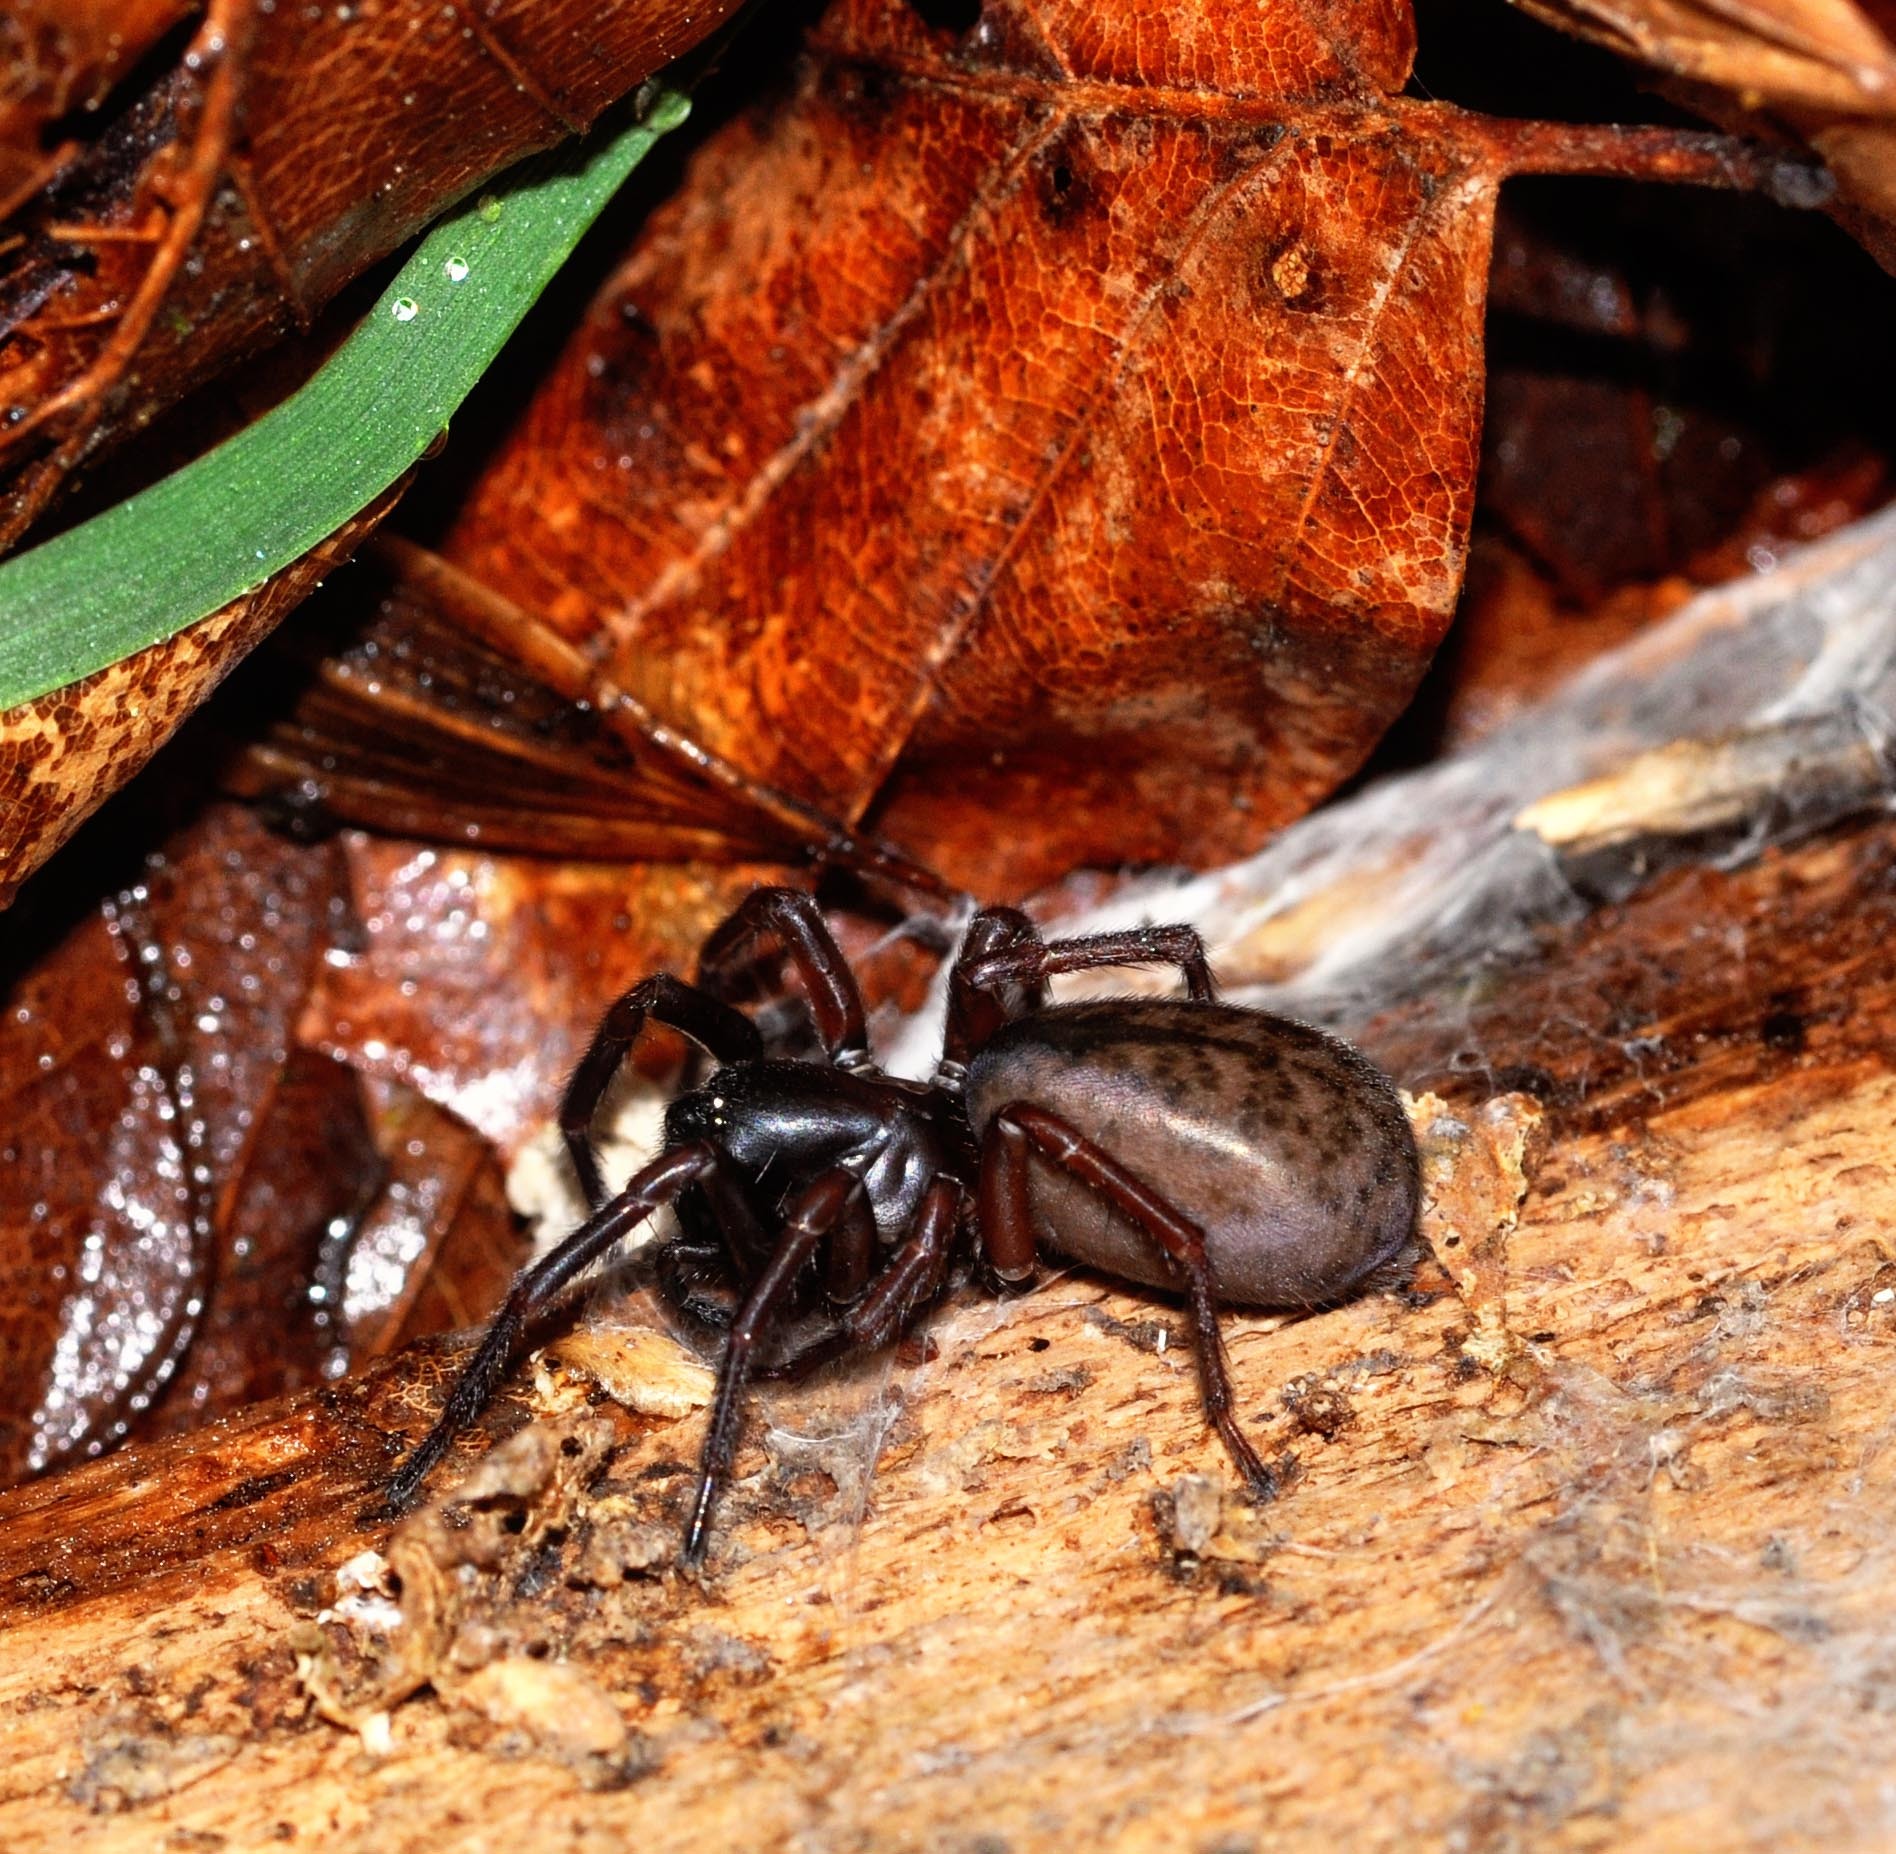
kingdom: Animalia
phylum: Arthropoda
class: Arachnida
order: Araneae
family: Agelenidae
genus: Coelotes
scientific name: Coelotes atropos
